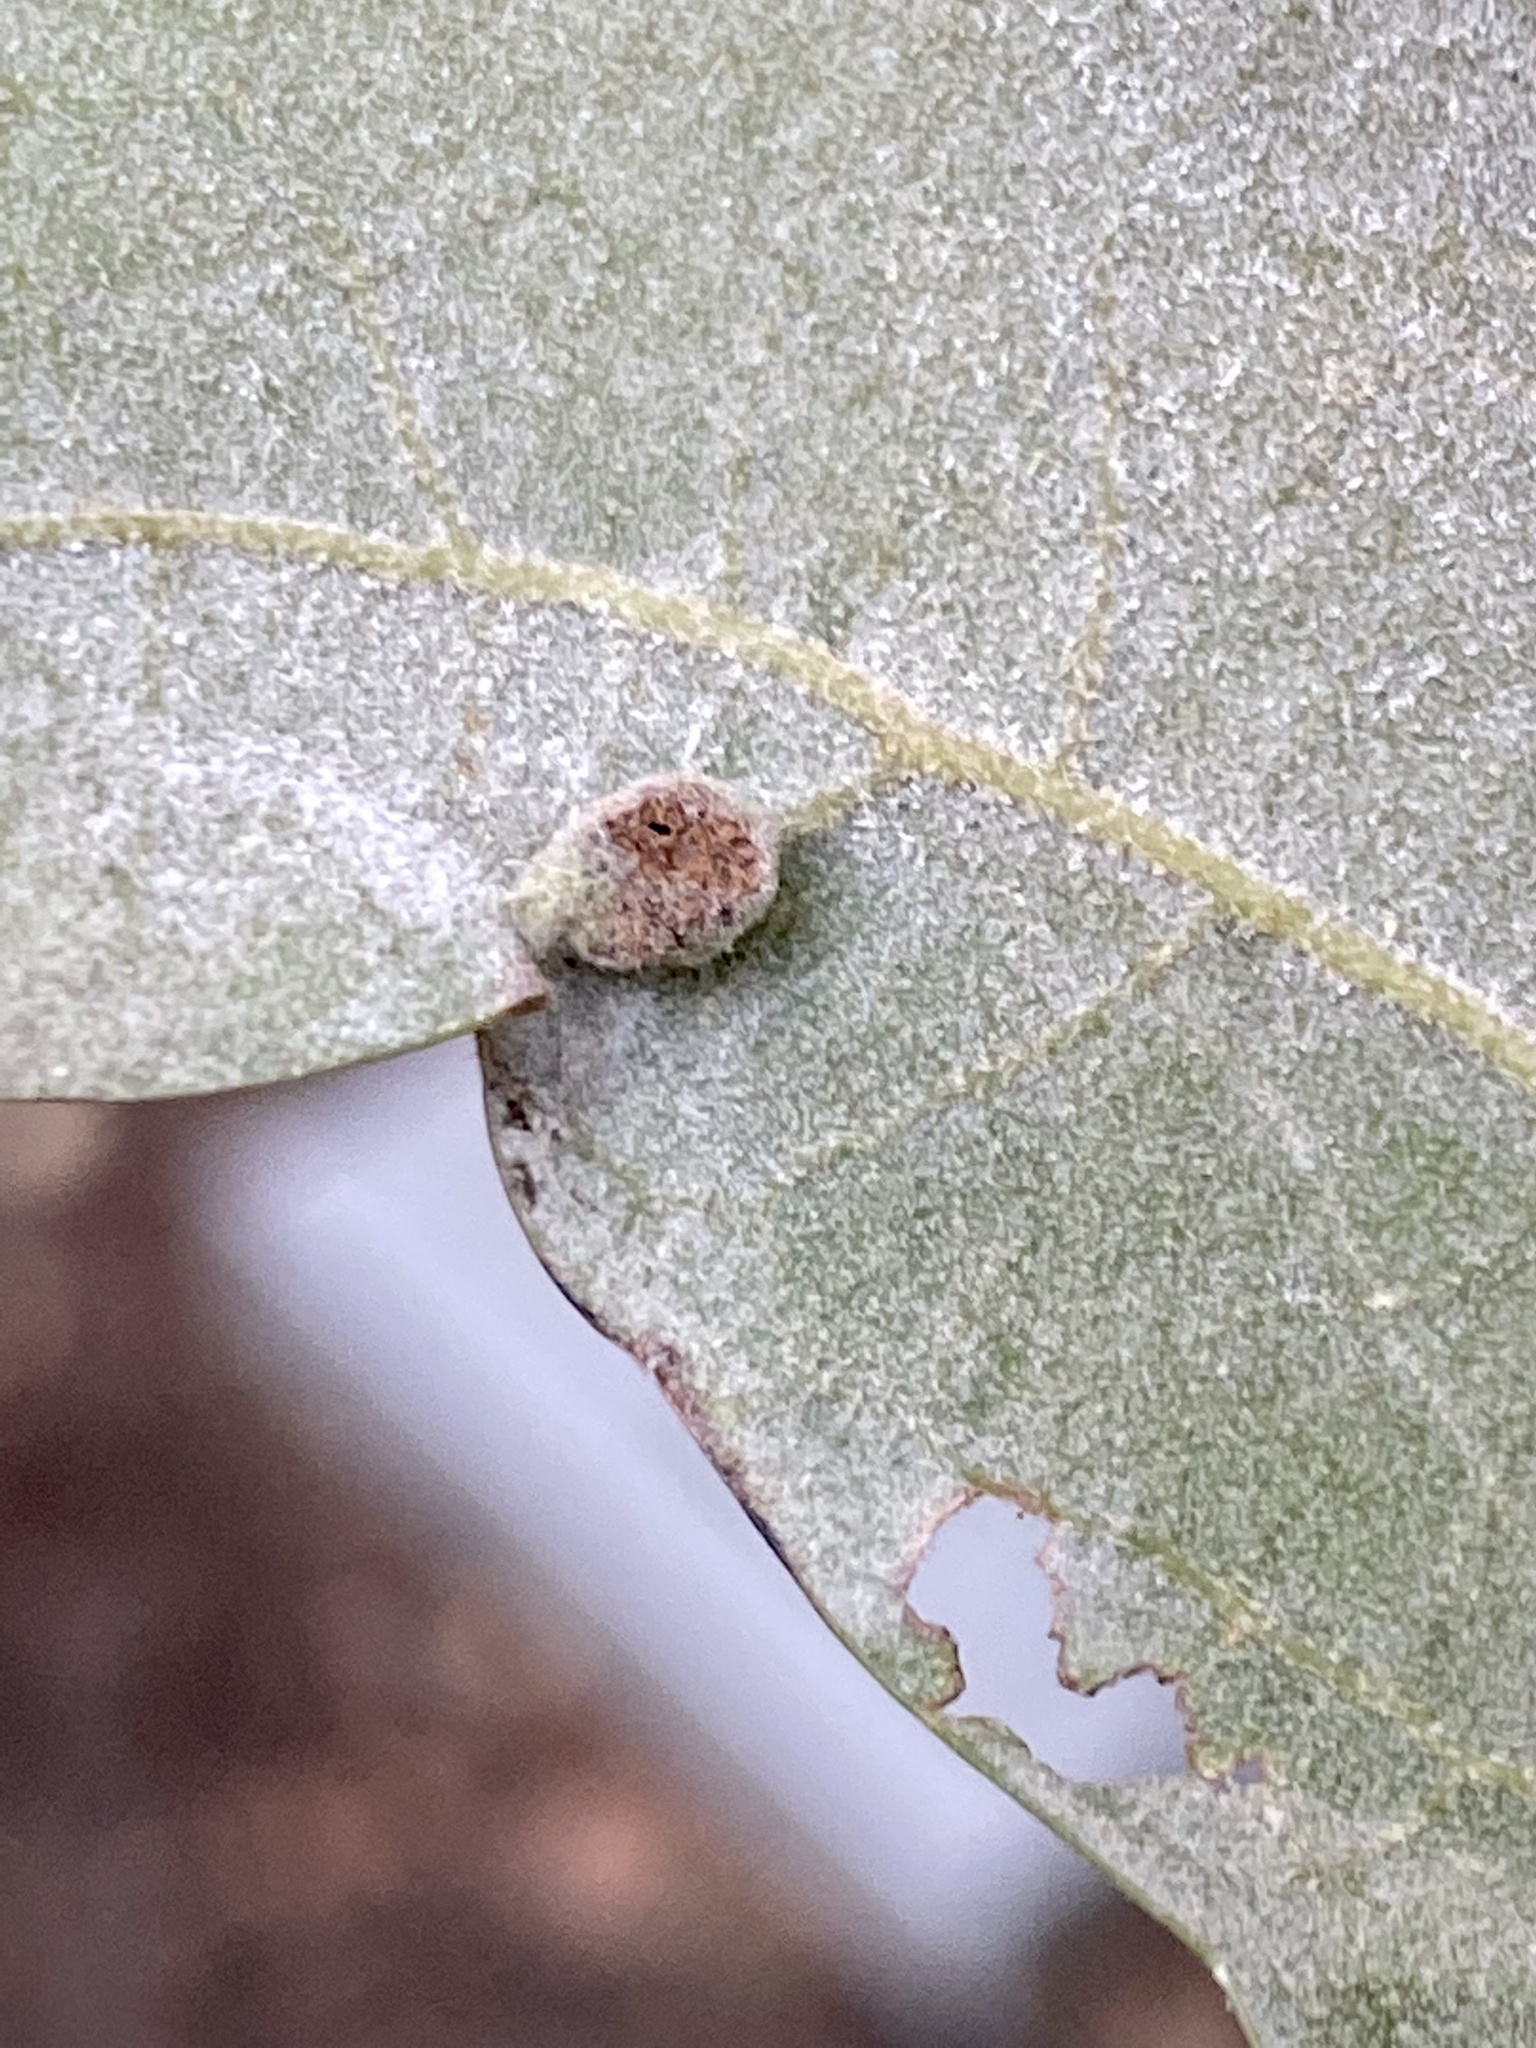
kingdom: Animalia
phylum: Arthropoda
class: Insecta
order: Diptera
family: Cecidomyiidae
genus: Macrodiplosis
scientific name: Macrodiplosis majalis
